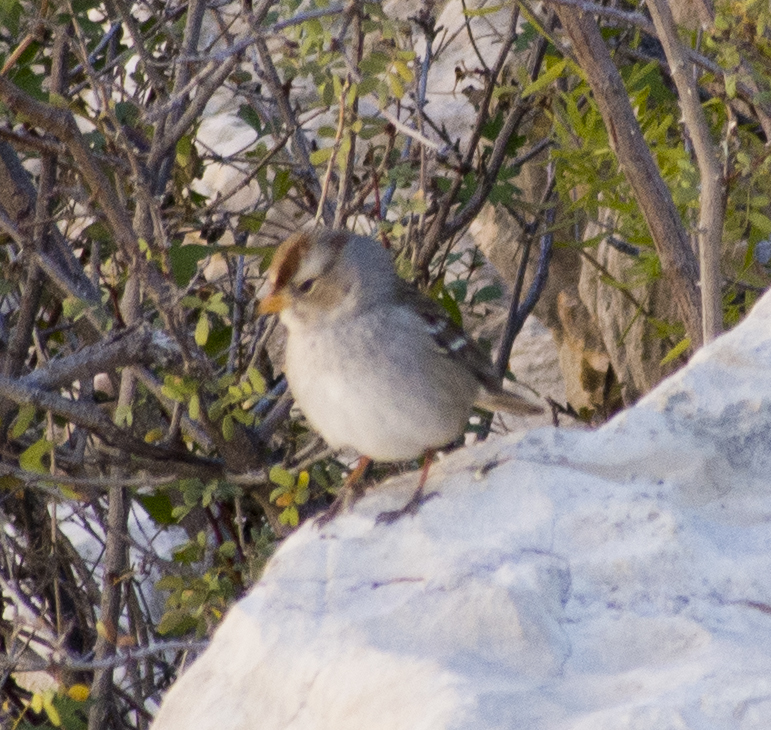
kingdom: Animalia
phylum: Chordata
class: Aves
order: Passeriformes
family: Passerellidae
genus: Zonotrichia
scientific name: Zonotrichia leucophrys
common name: White-crowned sparrow
